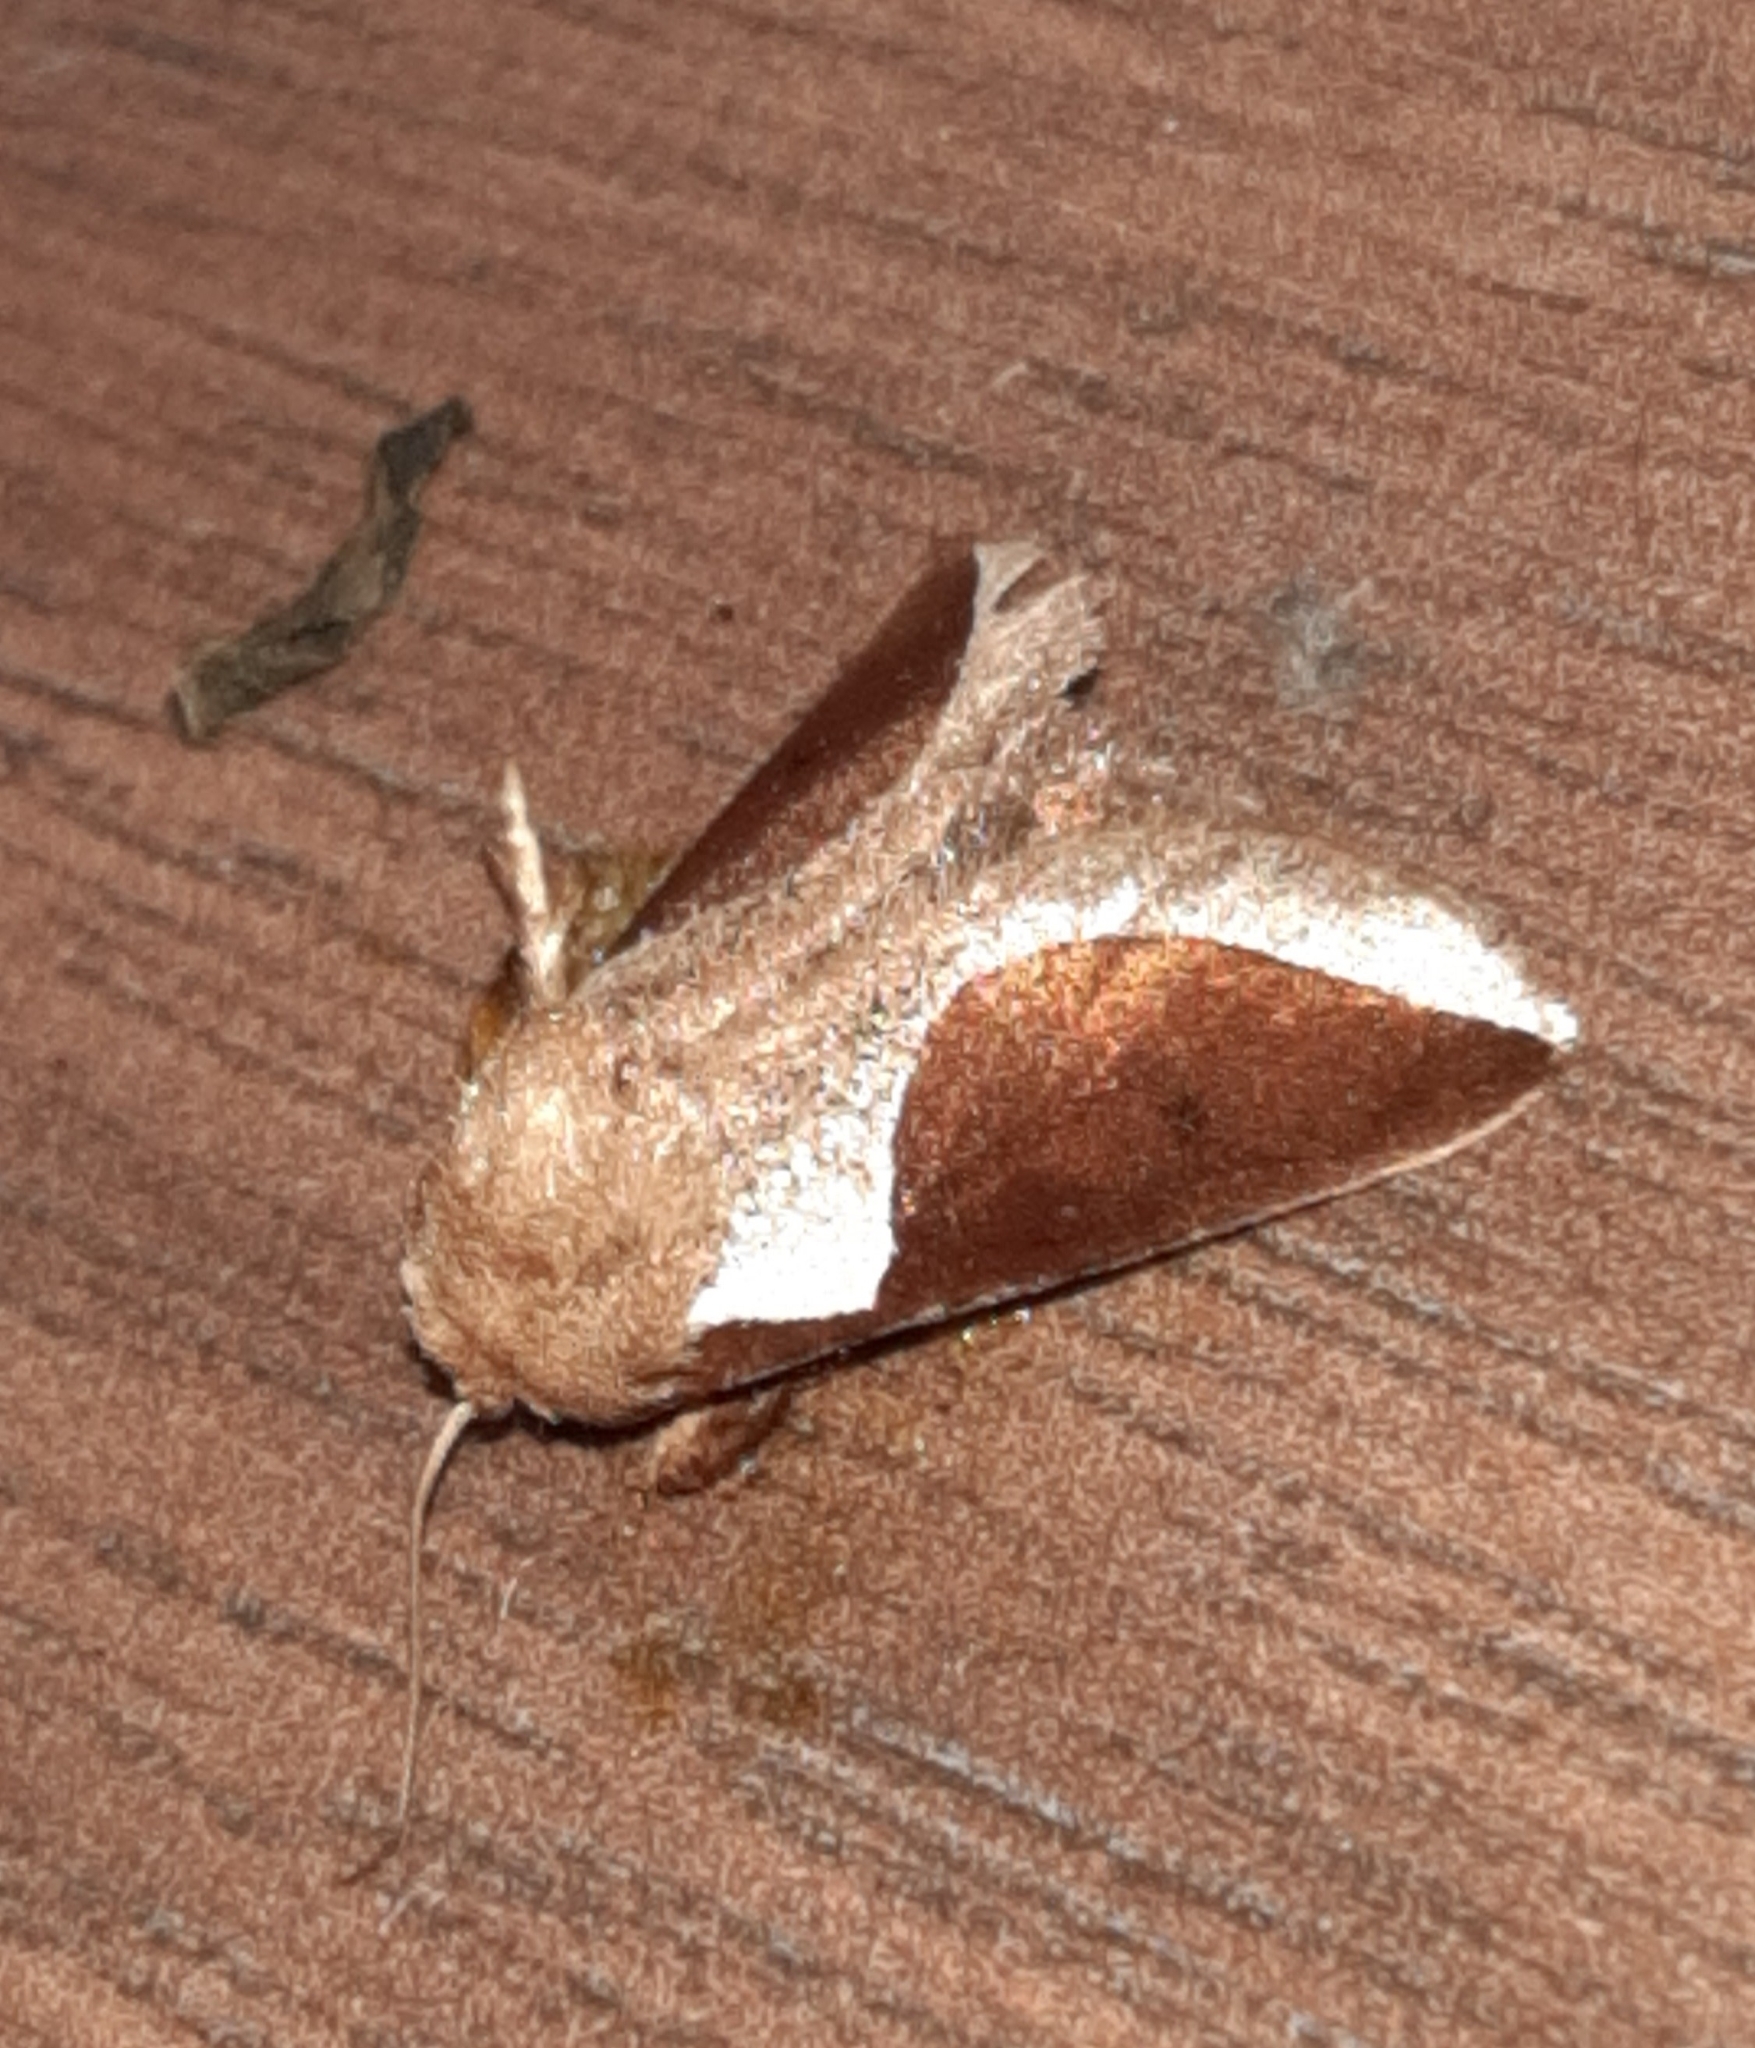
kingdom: Animalia
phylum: Arthropoda
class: Insecta
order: Lepidoptera
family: Limacodidae
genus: Prolimacodes
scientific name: Prolimacodes badia
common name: Skiff moth
